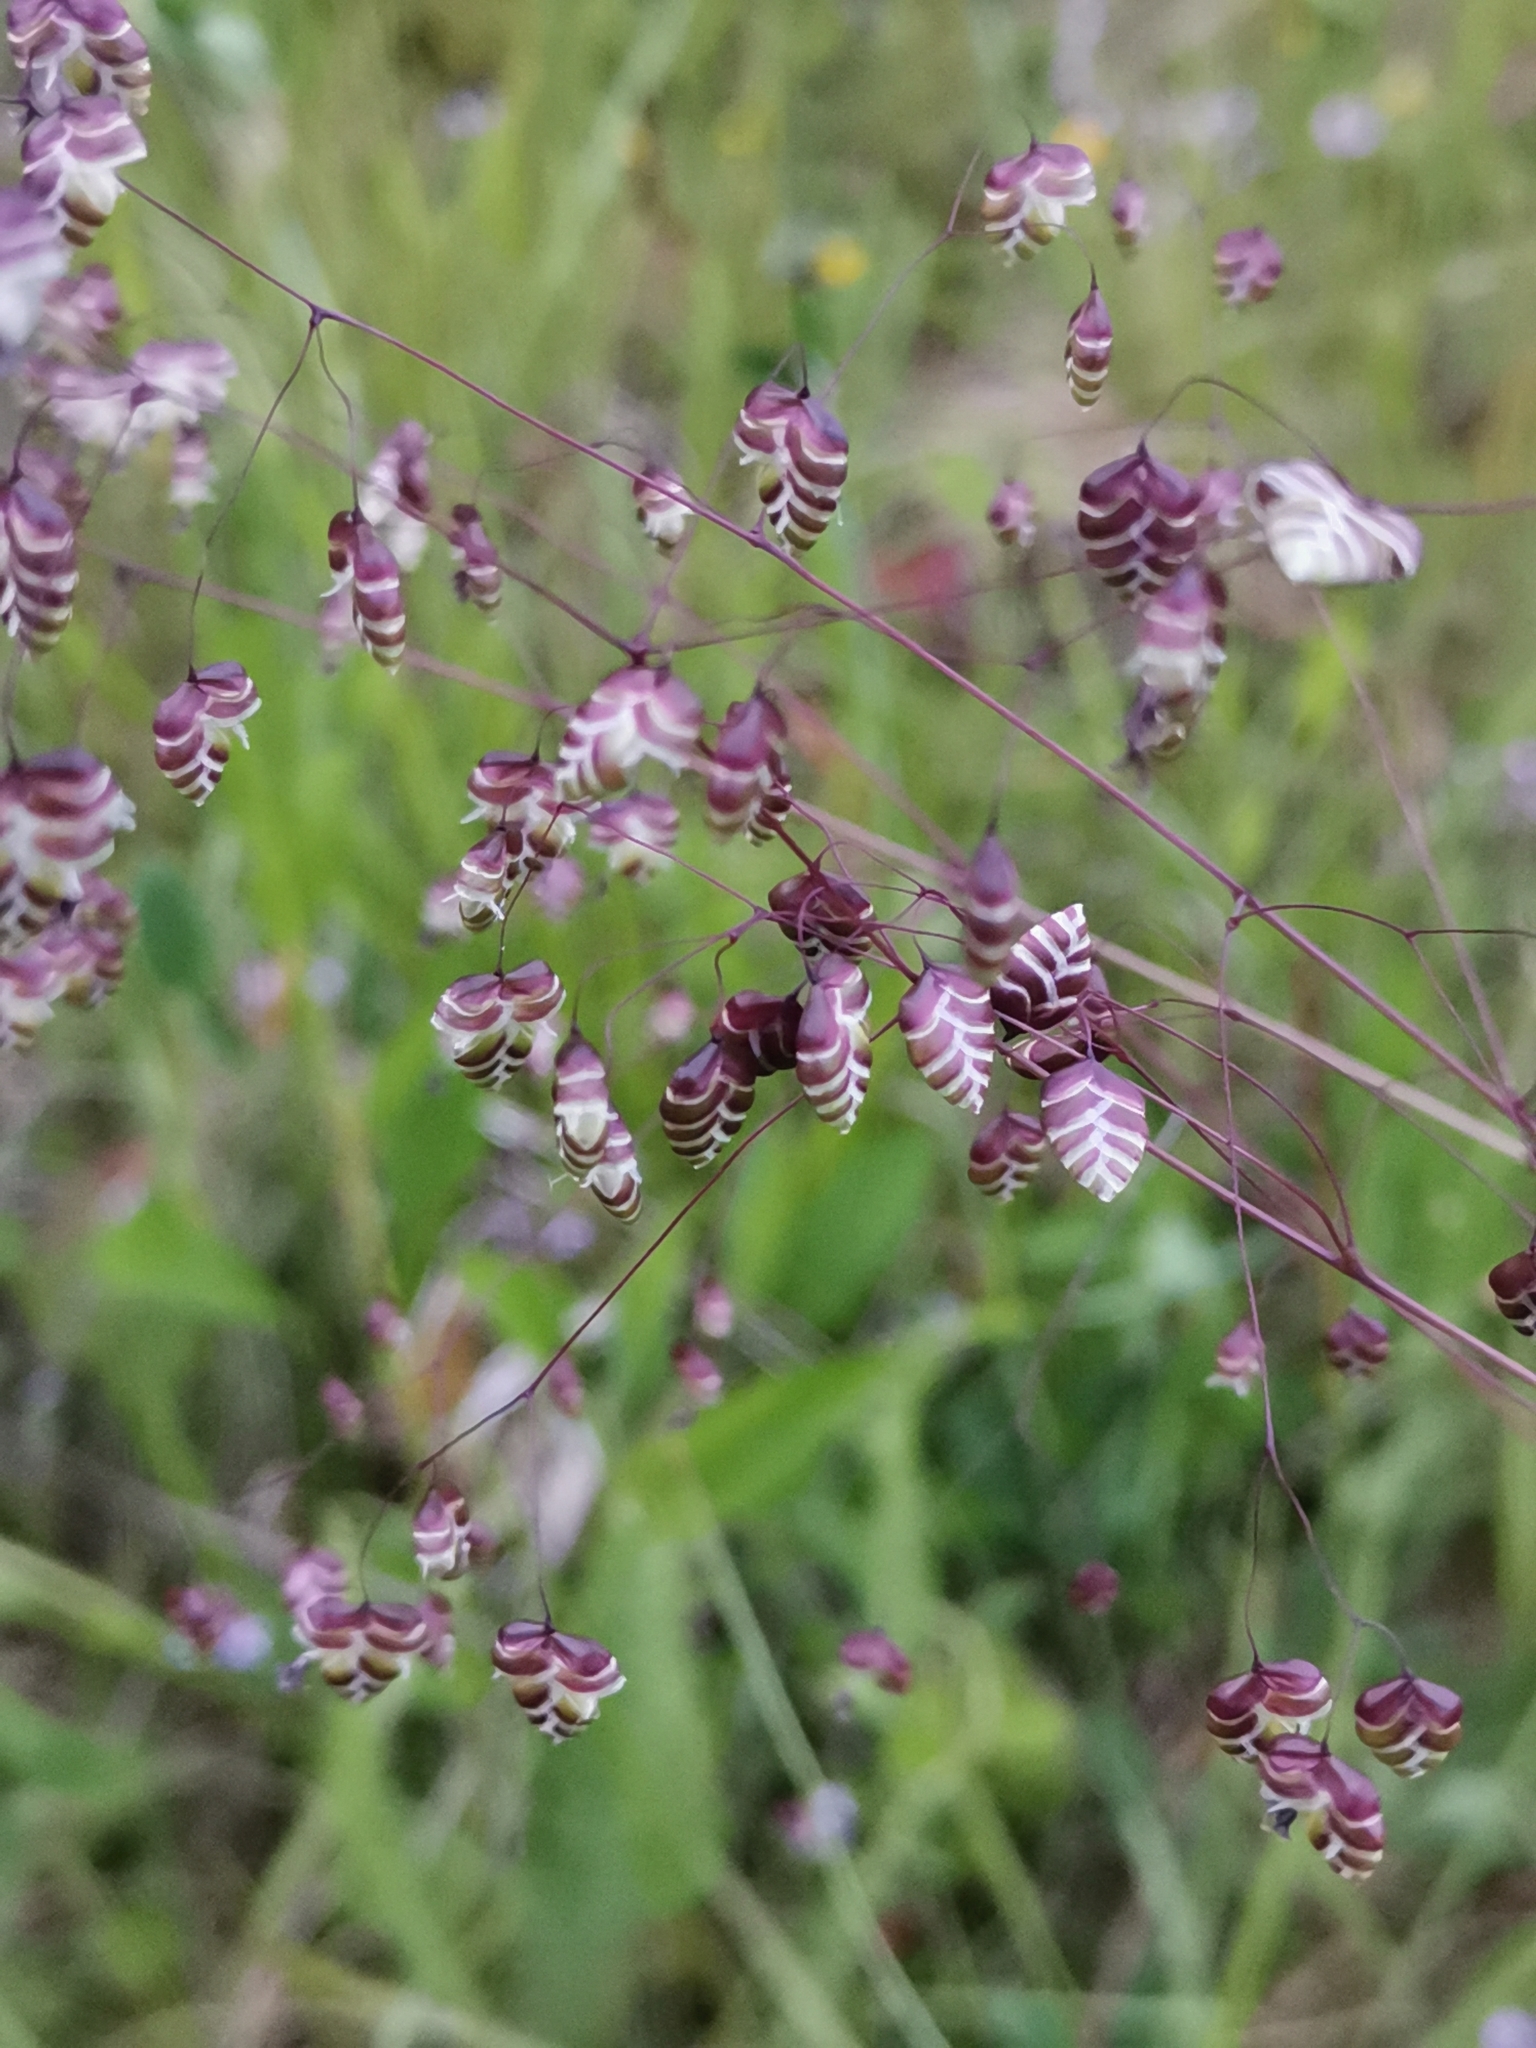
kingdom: Plantae
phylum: Tracheophyta
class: Liliopsida
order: Poales
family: Poaceae
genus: Briza
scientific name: Briza media
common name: Quaking grass
